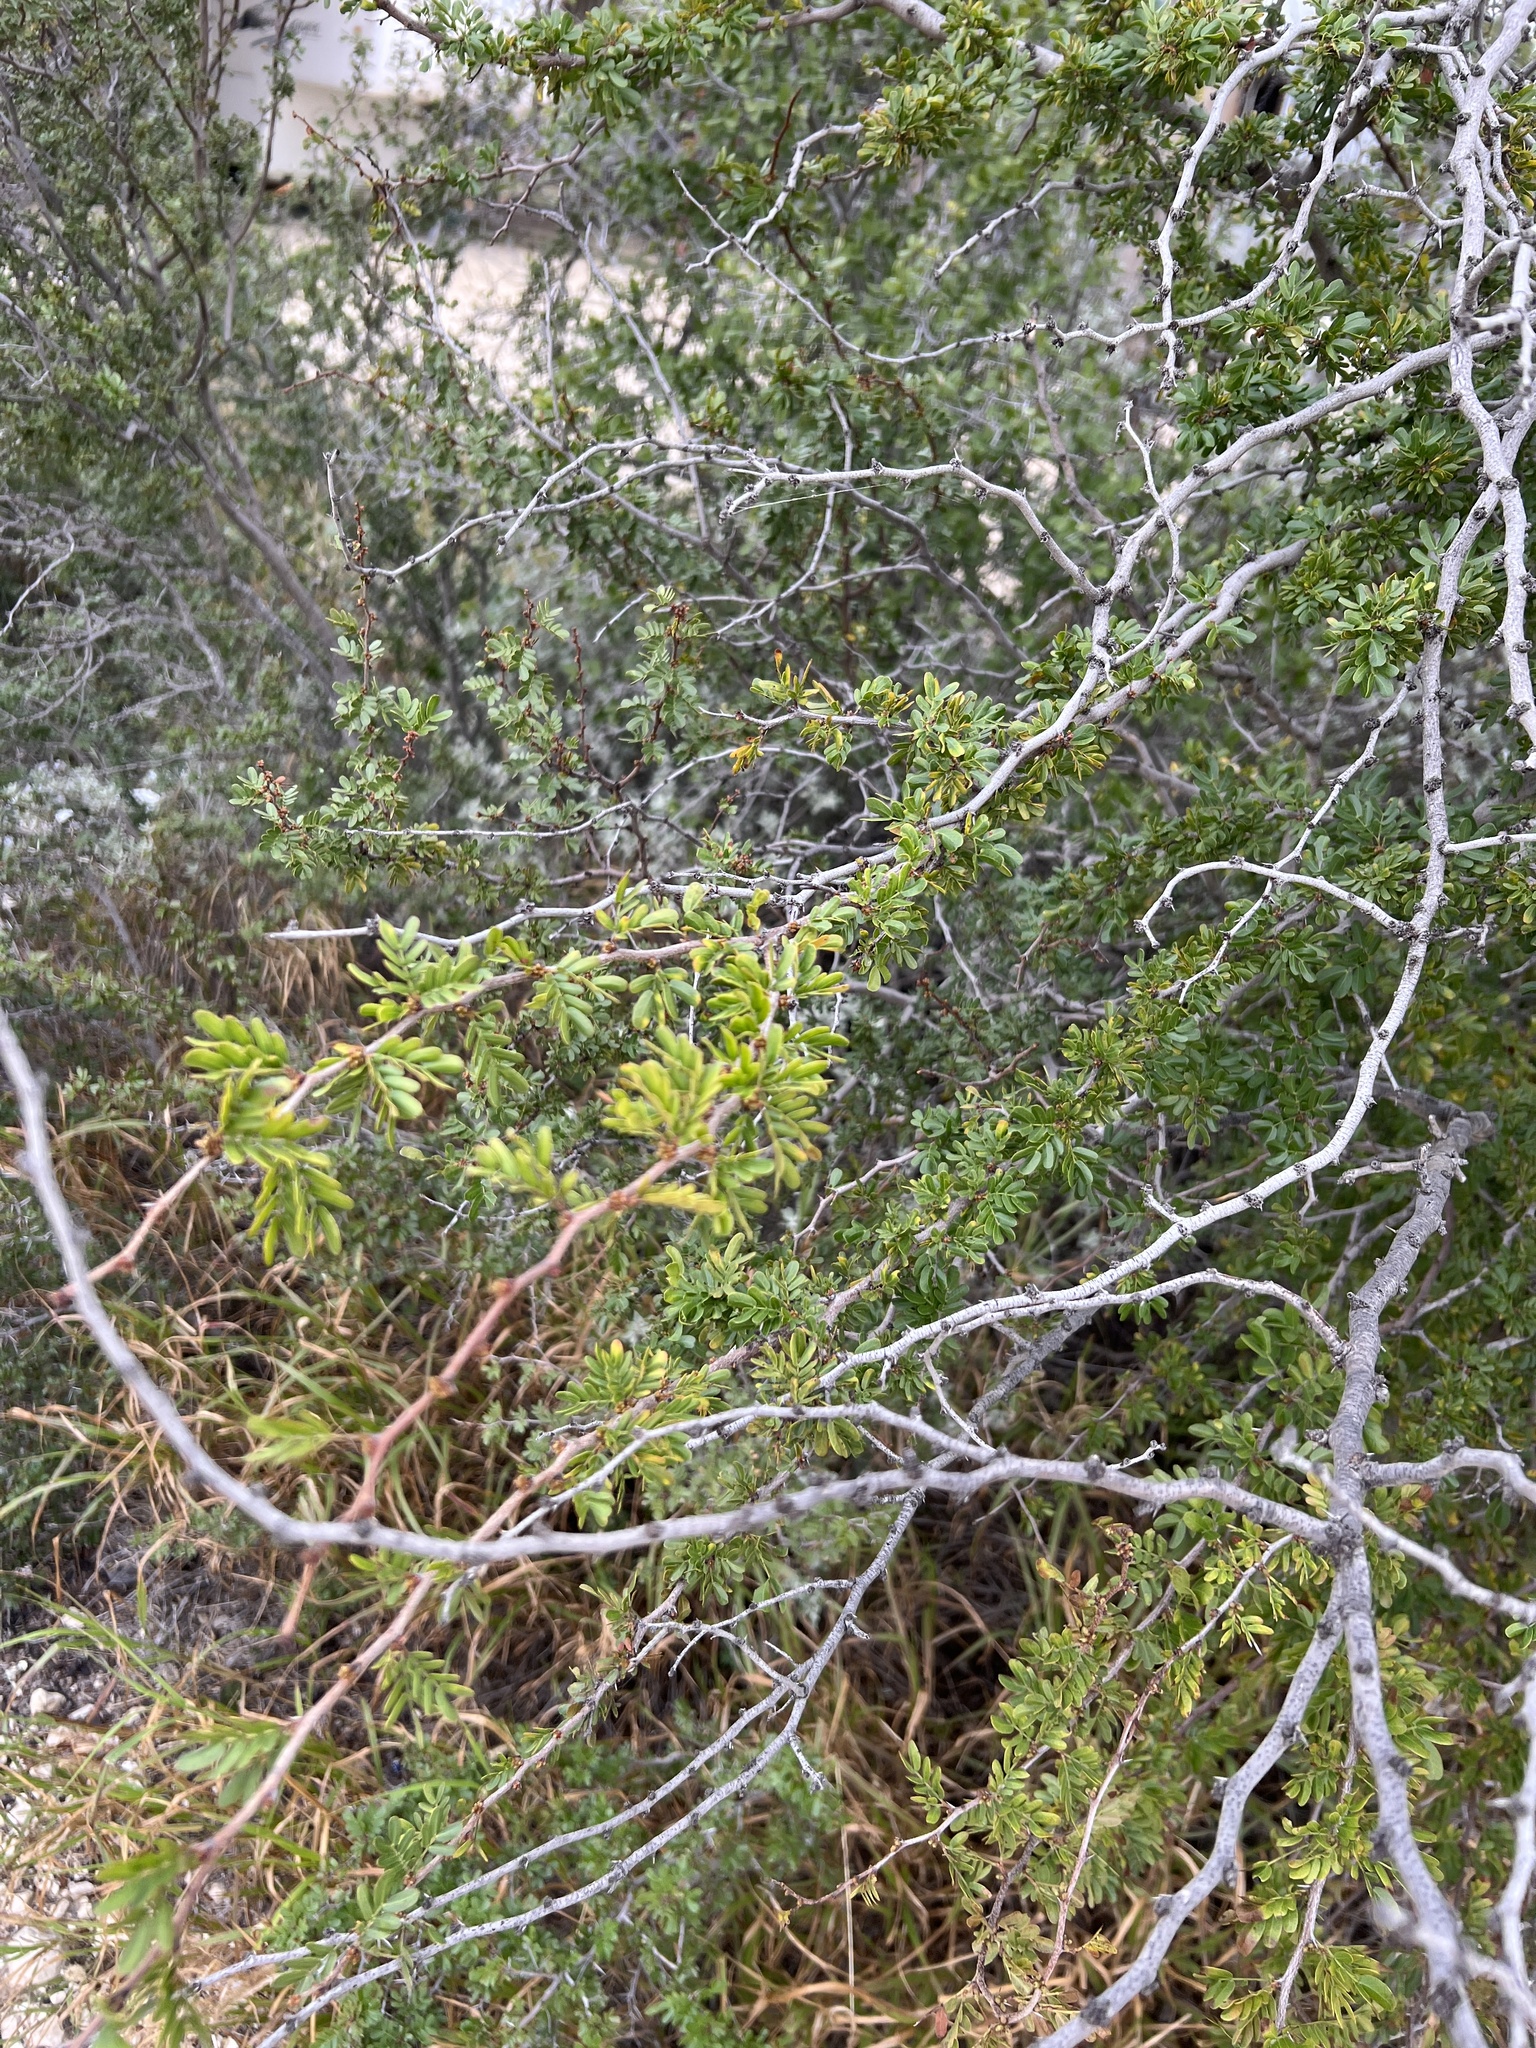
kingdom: Plantae
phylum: Tracheophyta
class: Magnoliopsida
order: Fabales
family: Fabaceae
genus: Vachellia
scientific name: Vachellia rigidula
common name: Blackbrush
